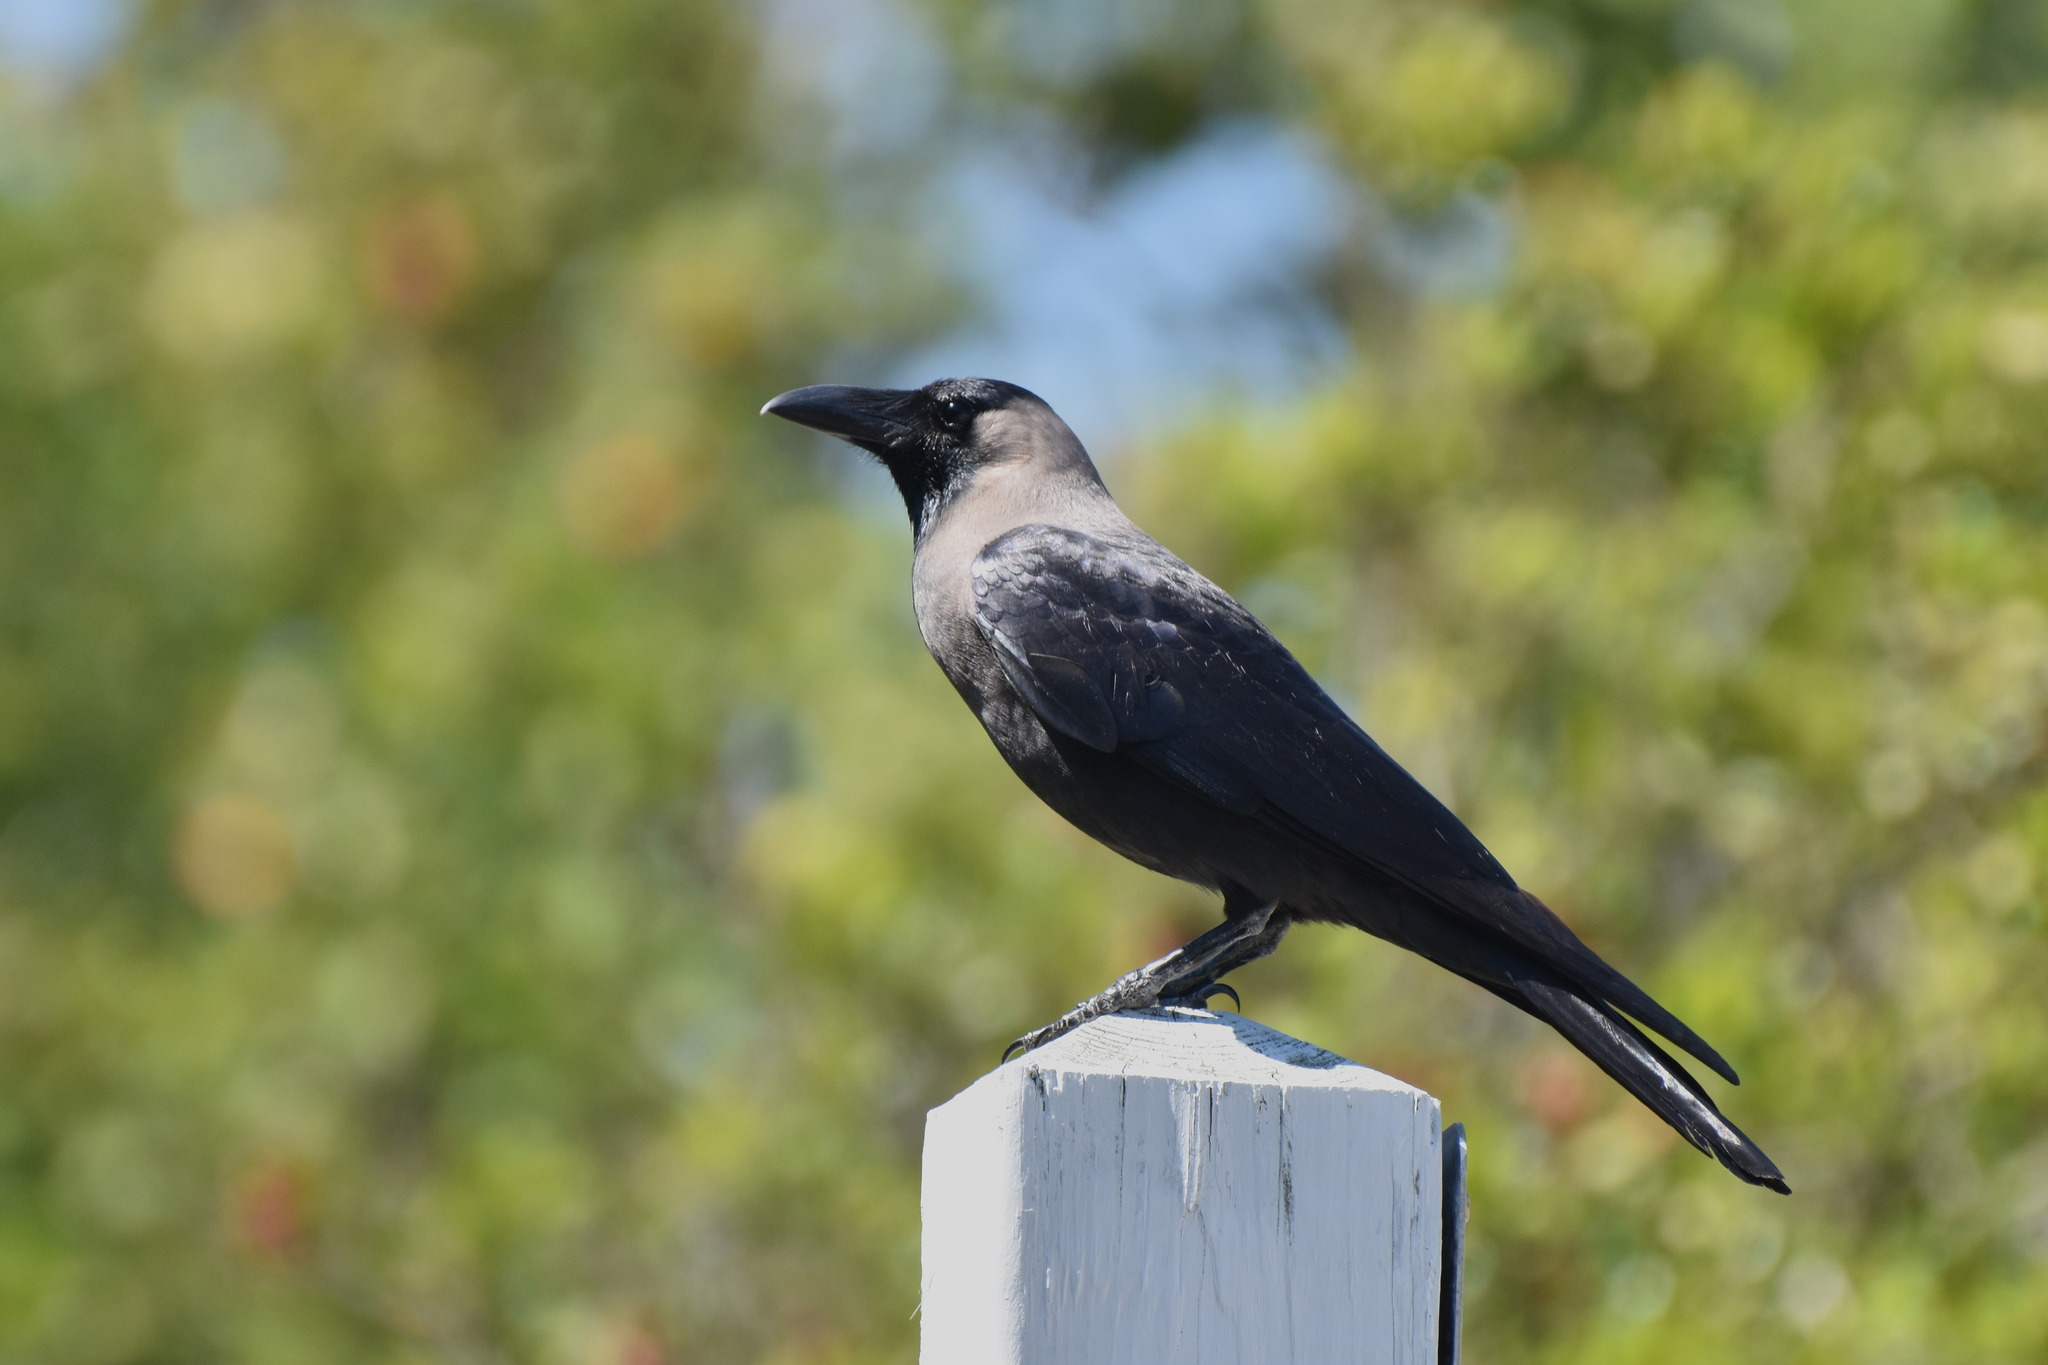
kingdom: Animalia
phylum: Chordata
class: Aves
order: Passeriformes
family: Corvidae
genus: Corvus
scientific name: Corvus splendens
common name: House crow
